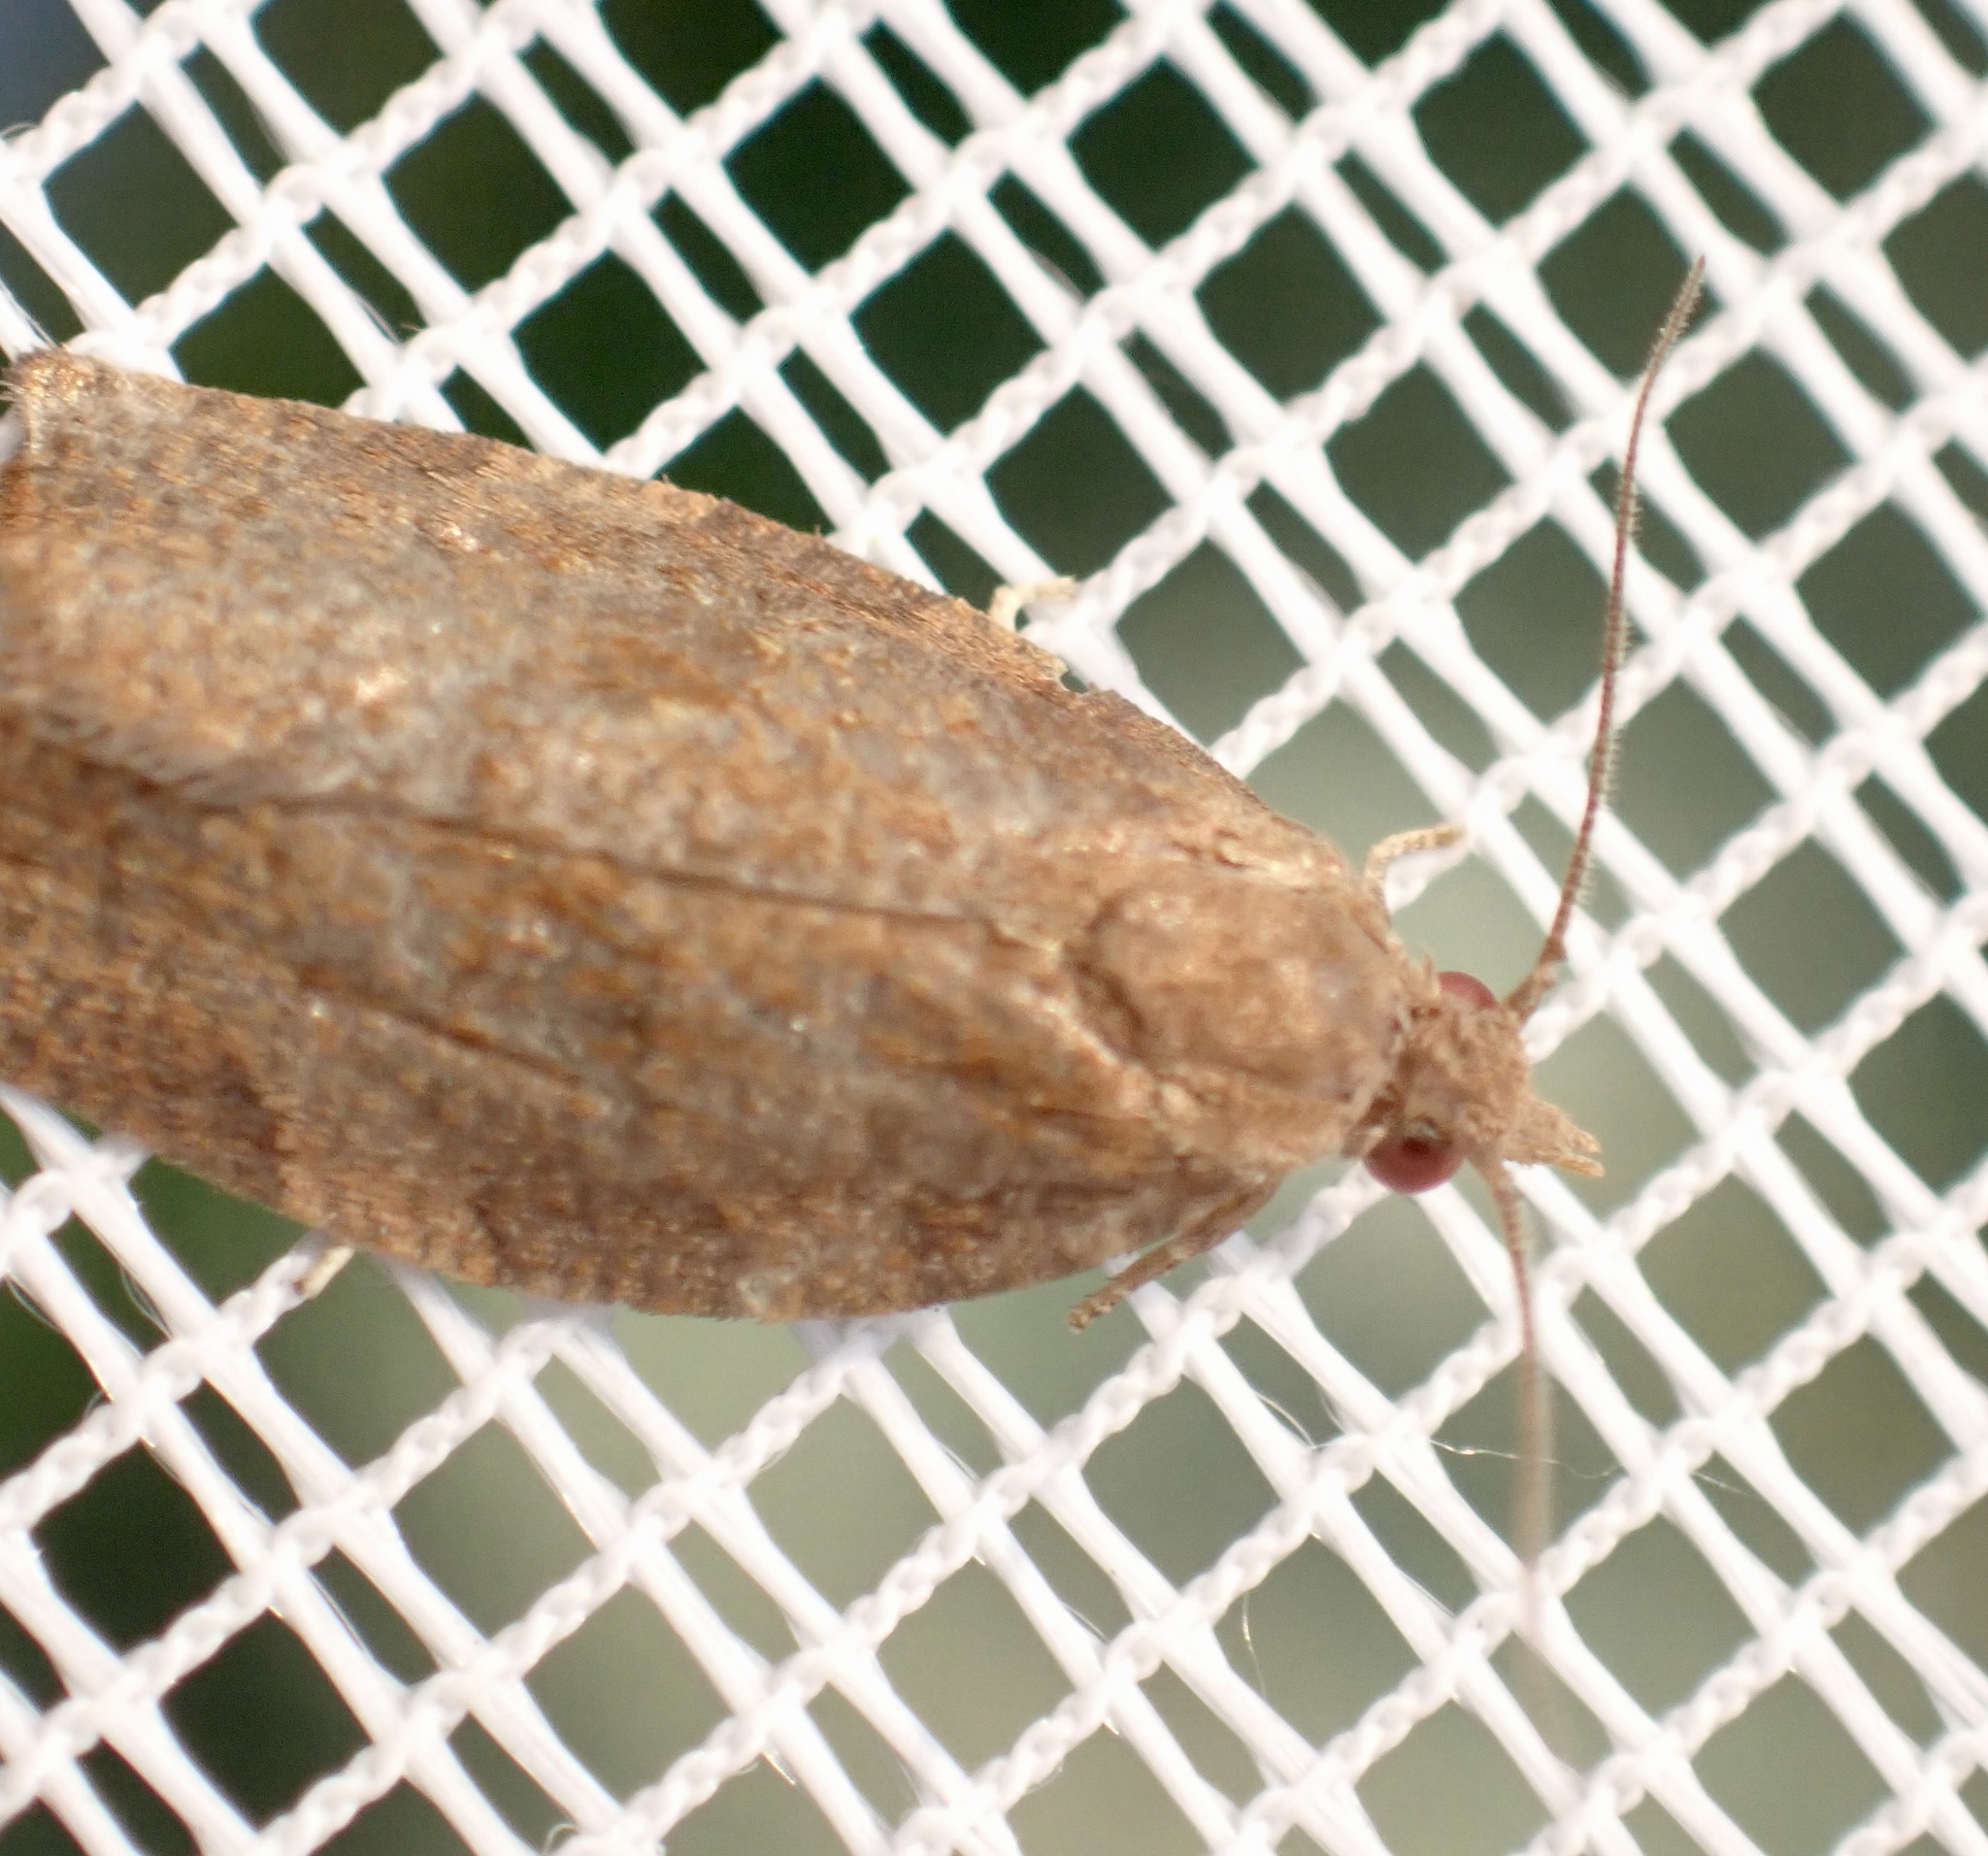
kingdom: Animalia
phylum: Arthropoda
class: Insecta
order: Lepidoptera
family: Tortricidae
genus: Pandemis
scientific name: Pandemis heparana
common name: Dark fruit-tree tortrix
